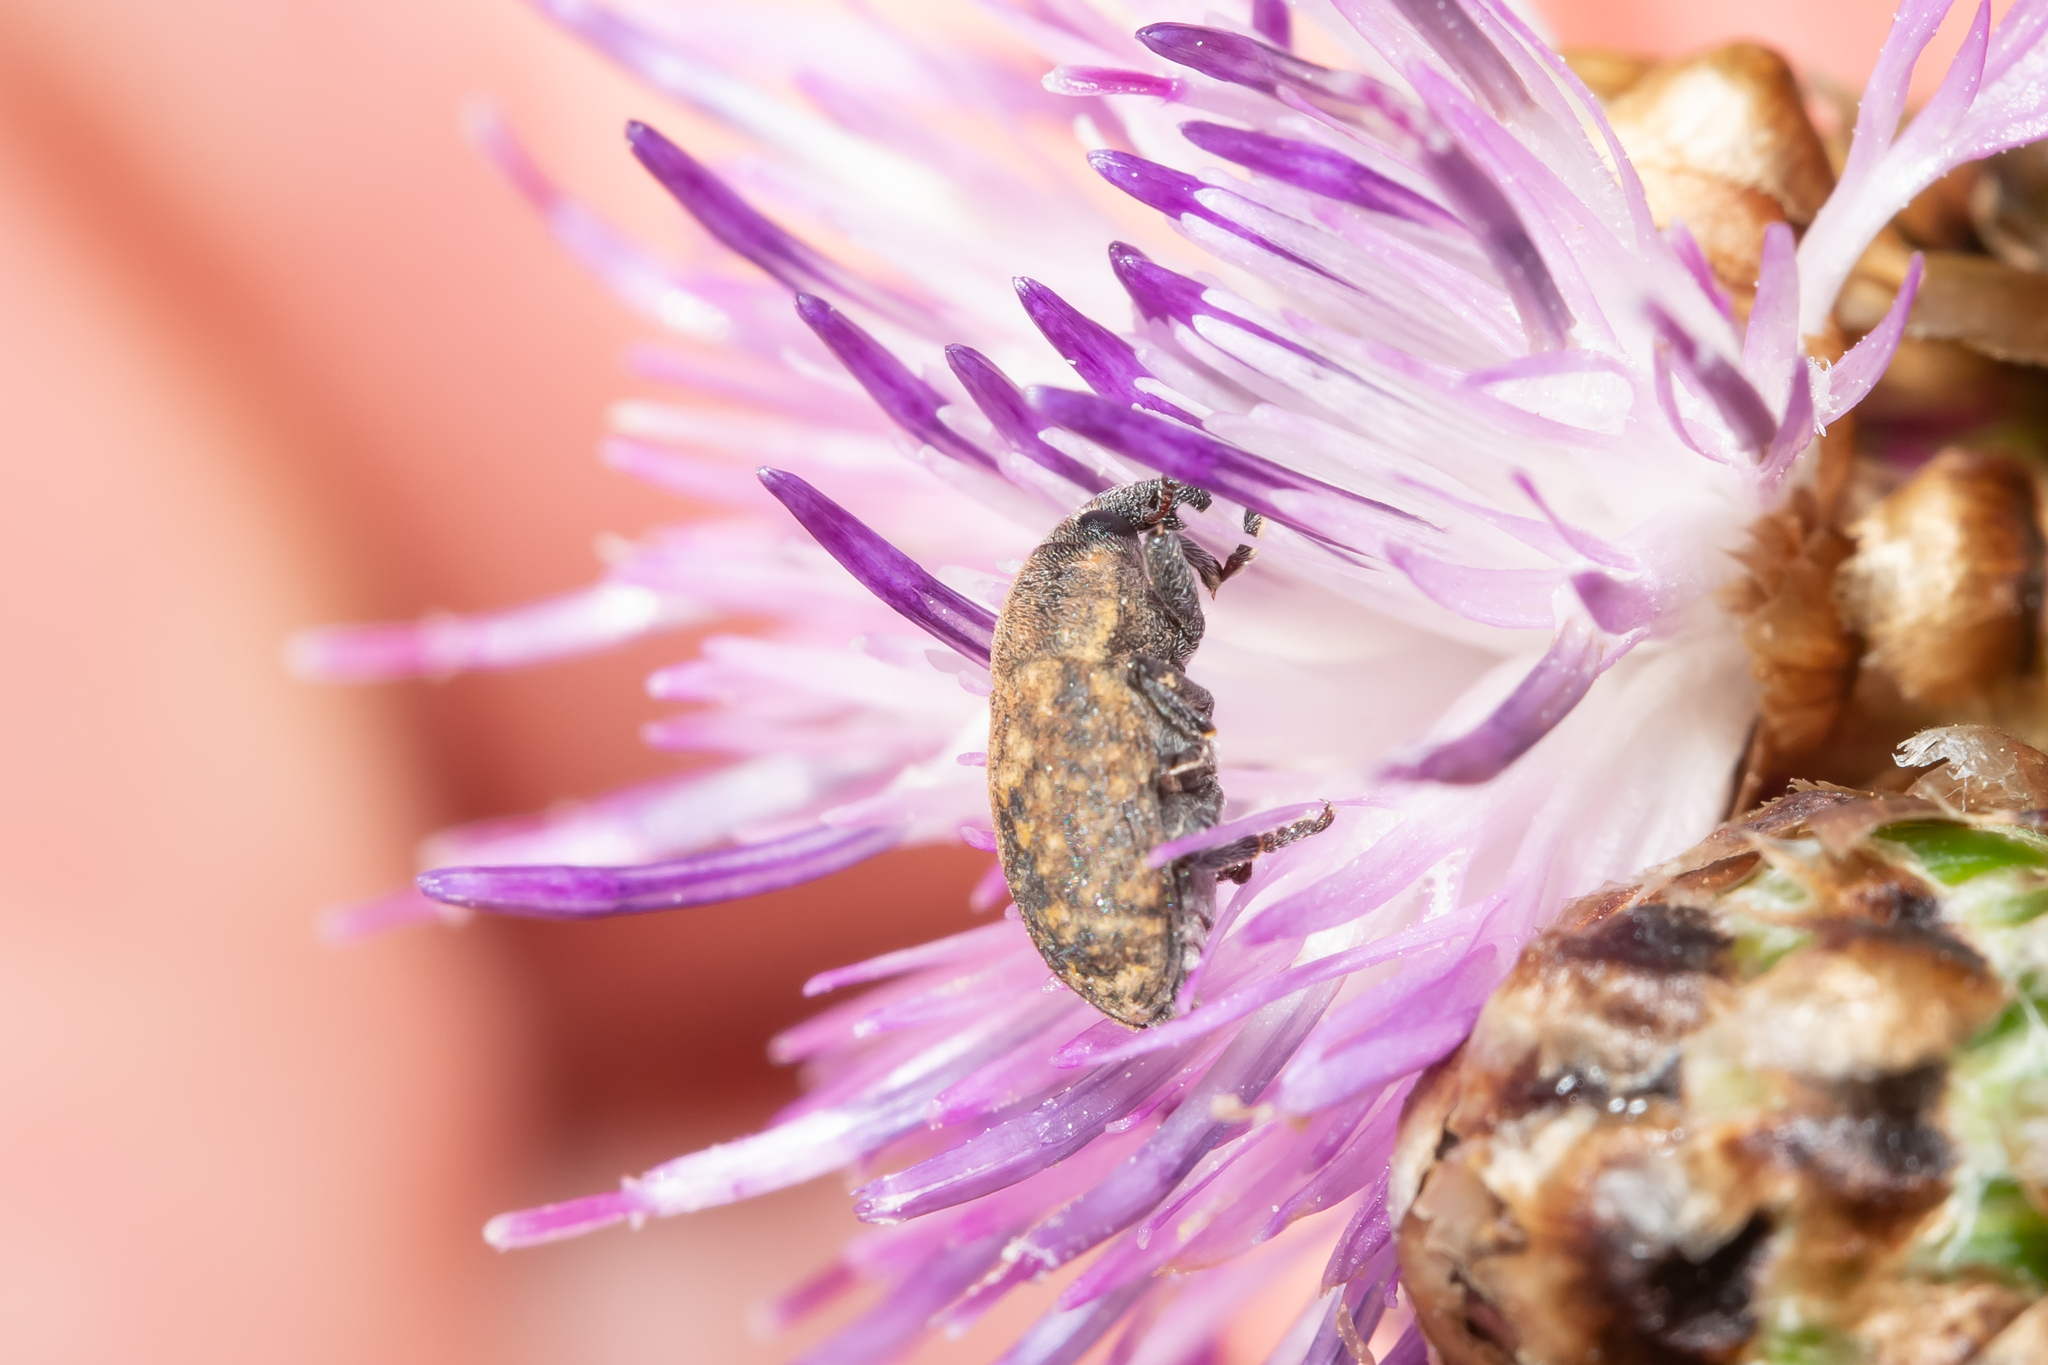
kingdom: Animalia
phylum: Arthropoda
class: Insecta
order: Coleoptera
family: Curculionidae
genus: Larinus
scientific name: Larinus obtusus
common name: Weevil
